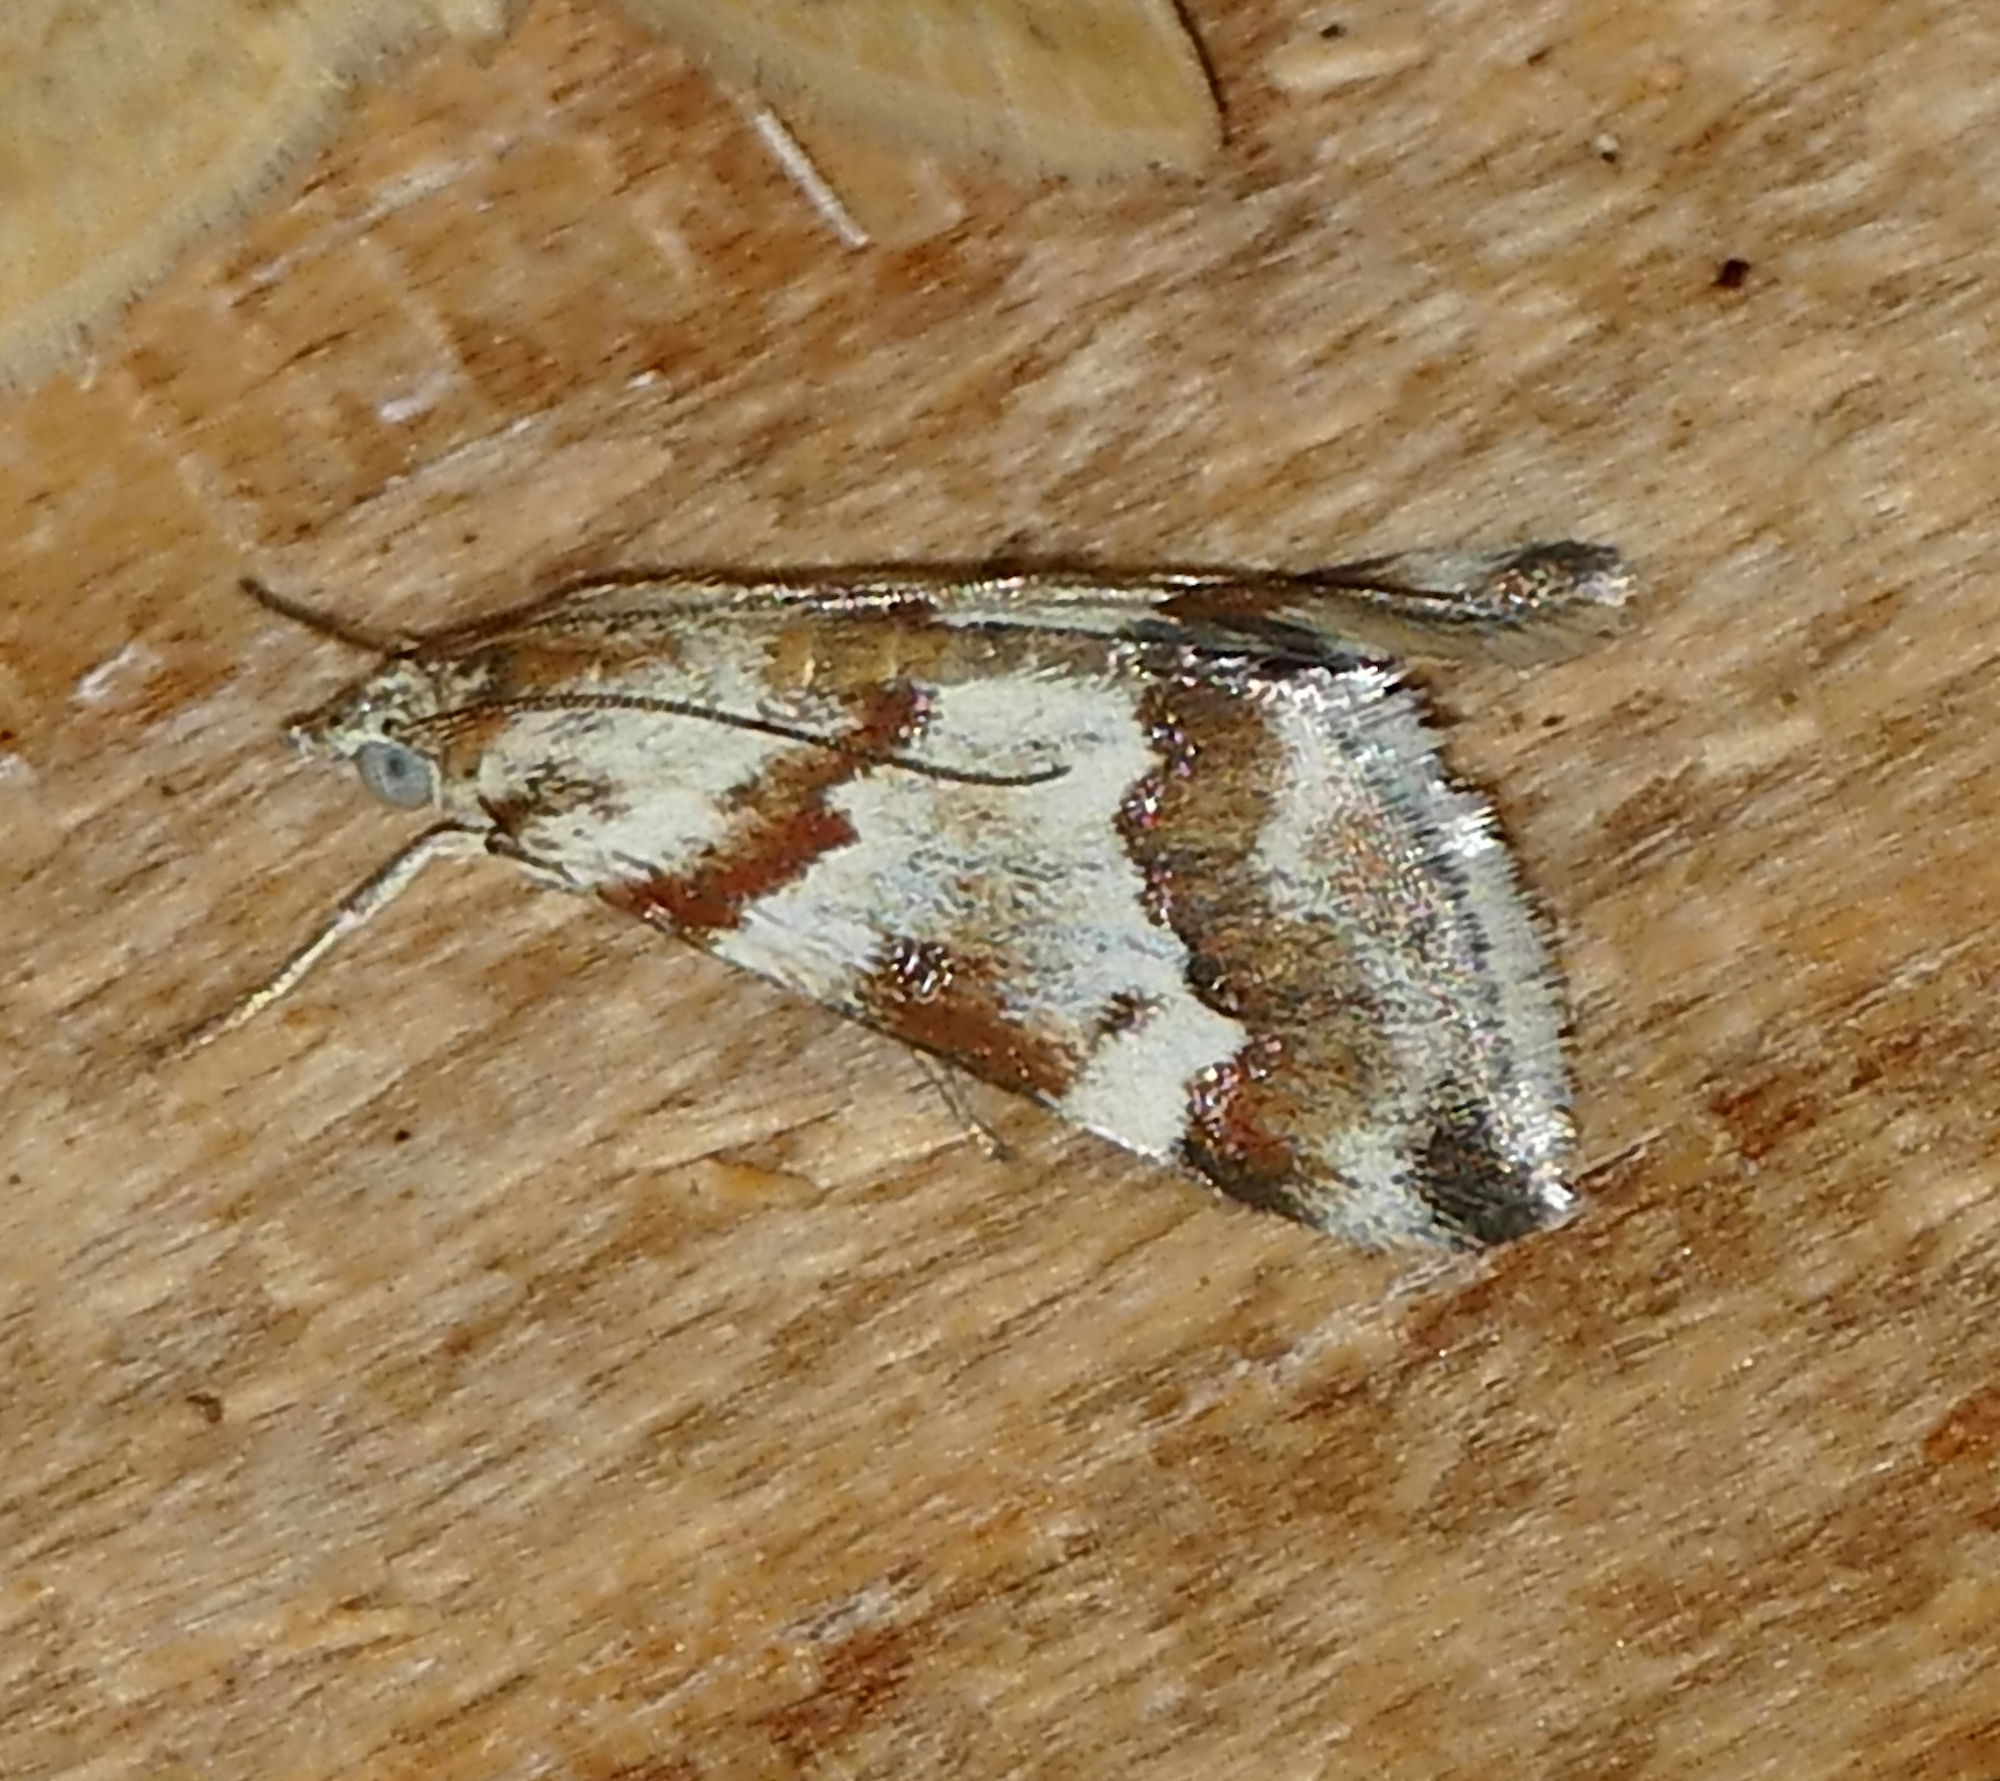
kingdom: Animalia
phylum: Arthropoda
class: Insecta
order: Lepidoptera
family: Crambidae
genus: Noctuelia
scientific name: Noctuelia Mimoschinia rufofascialis
